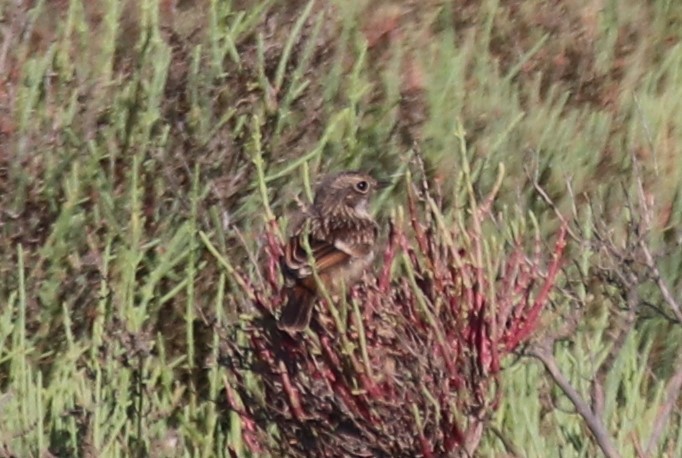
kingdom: Animalia
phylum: Chordata
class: Aves
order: Passeriformes
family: Muscicapidae
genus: Saxicola
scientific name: Saxicola rubicola
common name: European stonechat
